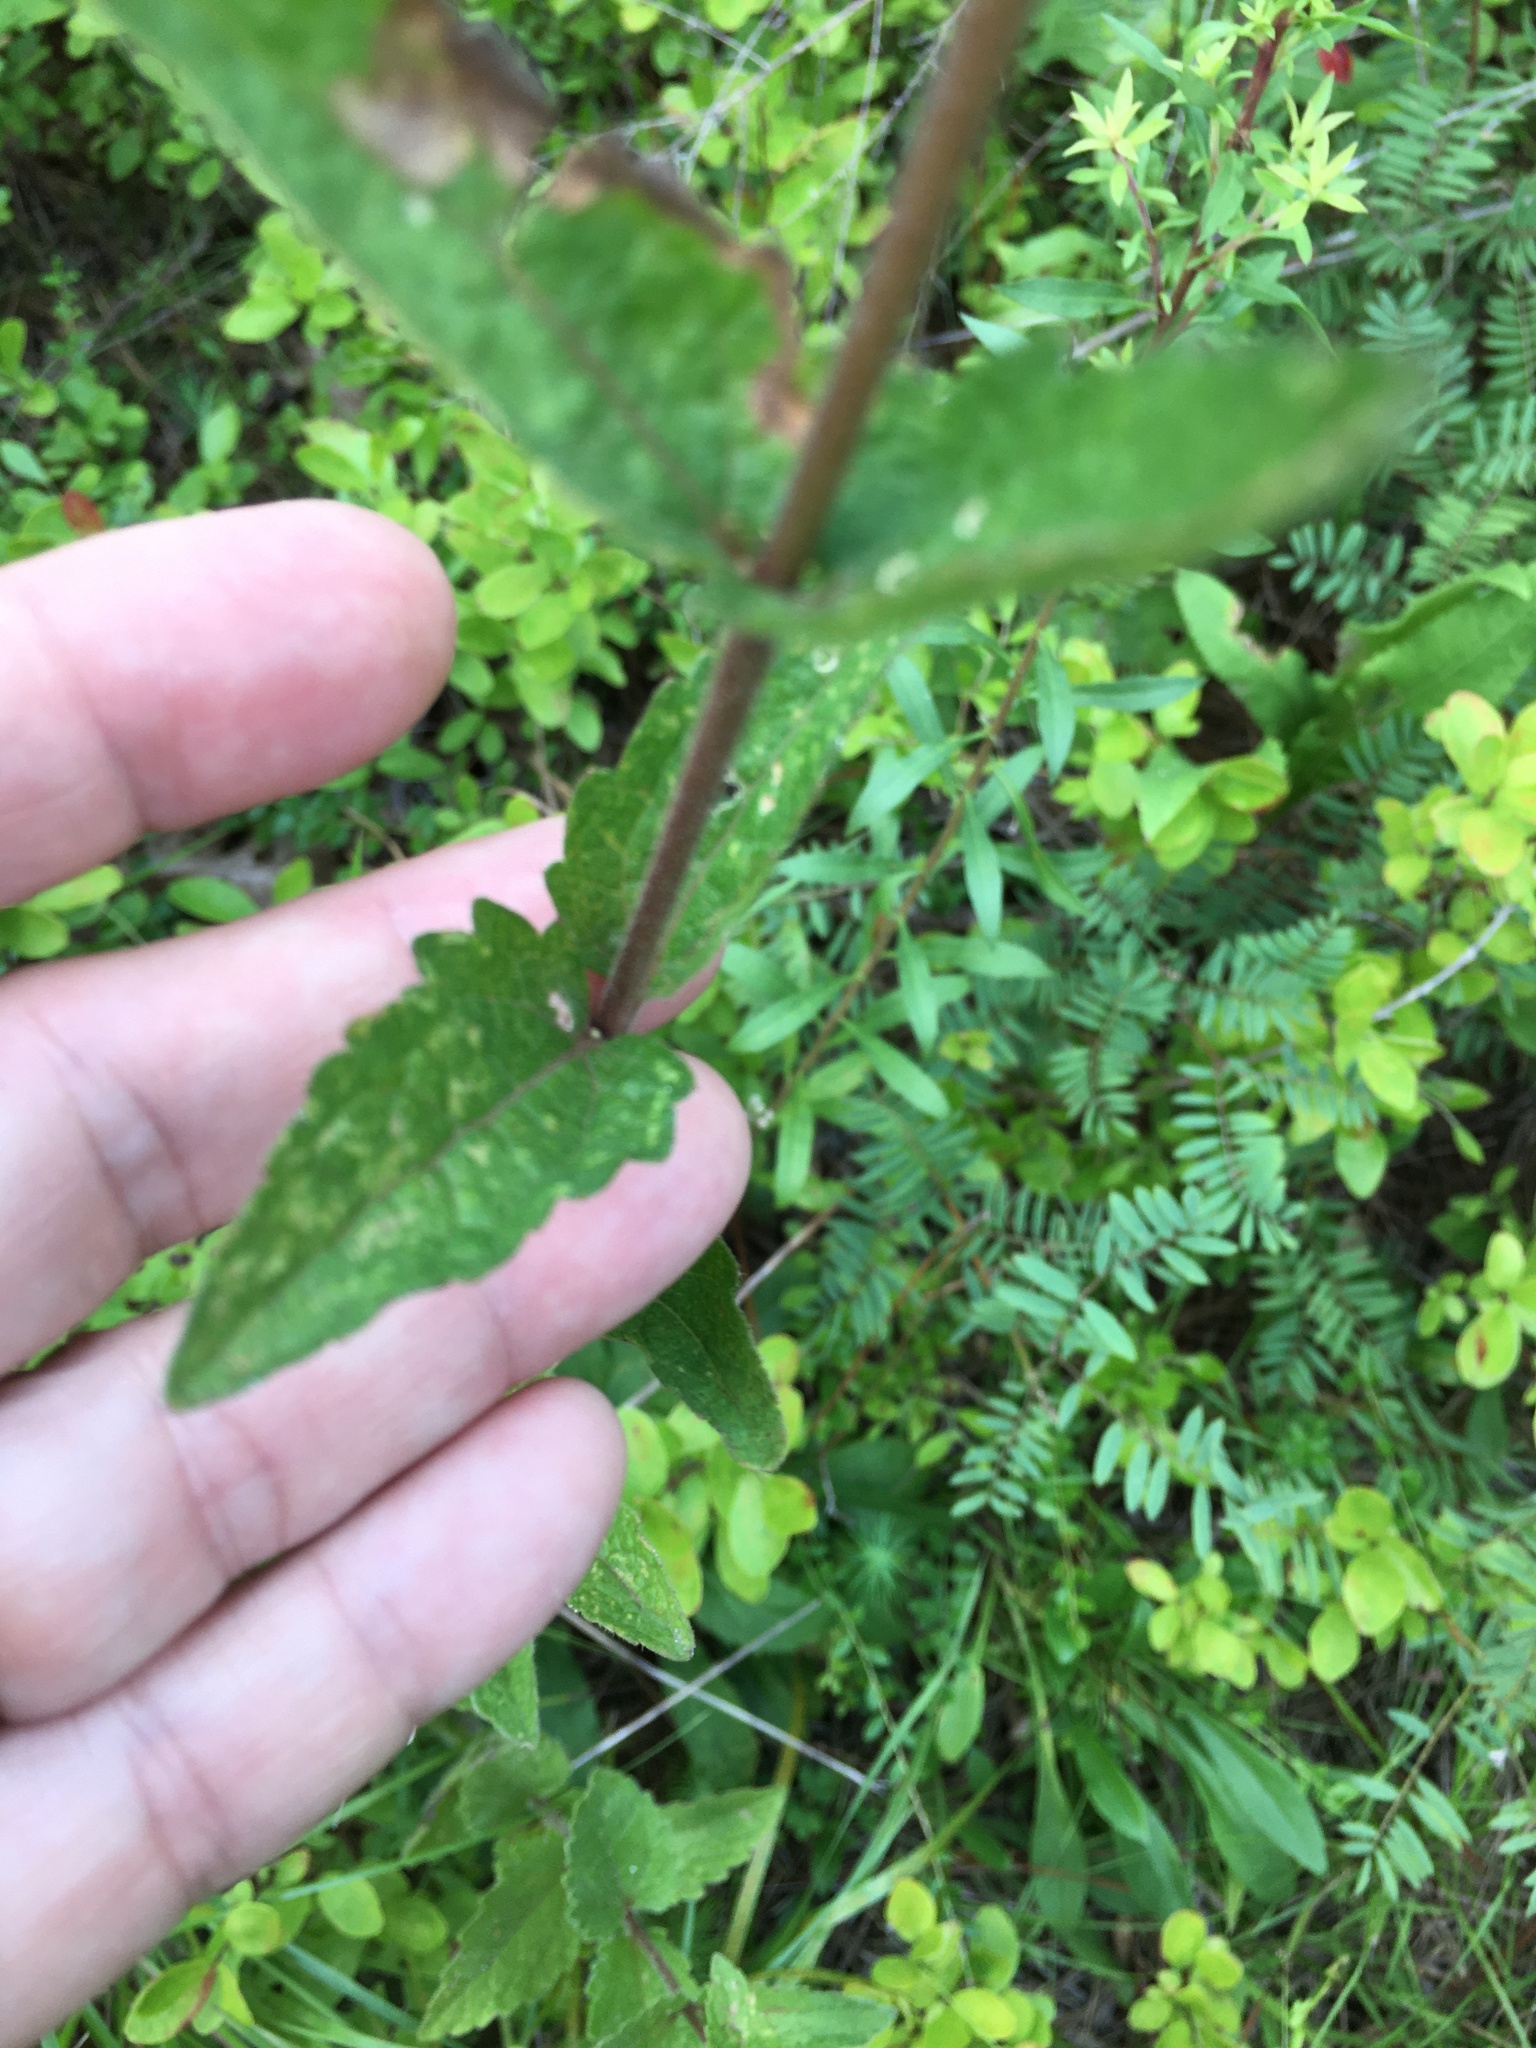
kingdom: Plantae
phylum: Tracheophyta
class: Magnoliopsida
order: Asterales
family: Asteraceae
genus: Eupatorium
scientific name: Eupatorium pilosum
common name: Rough boneset
